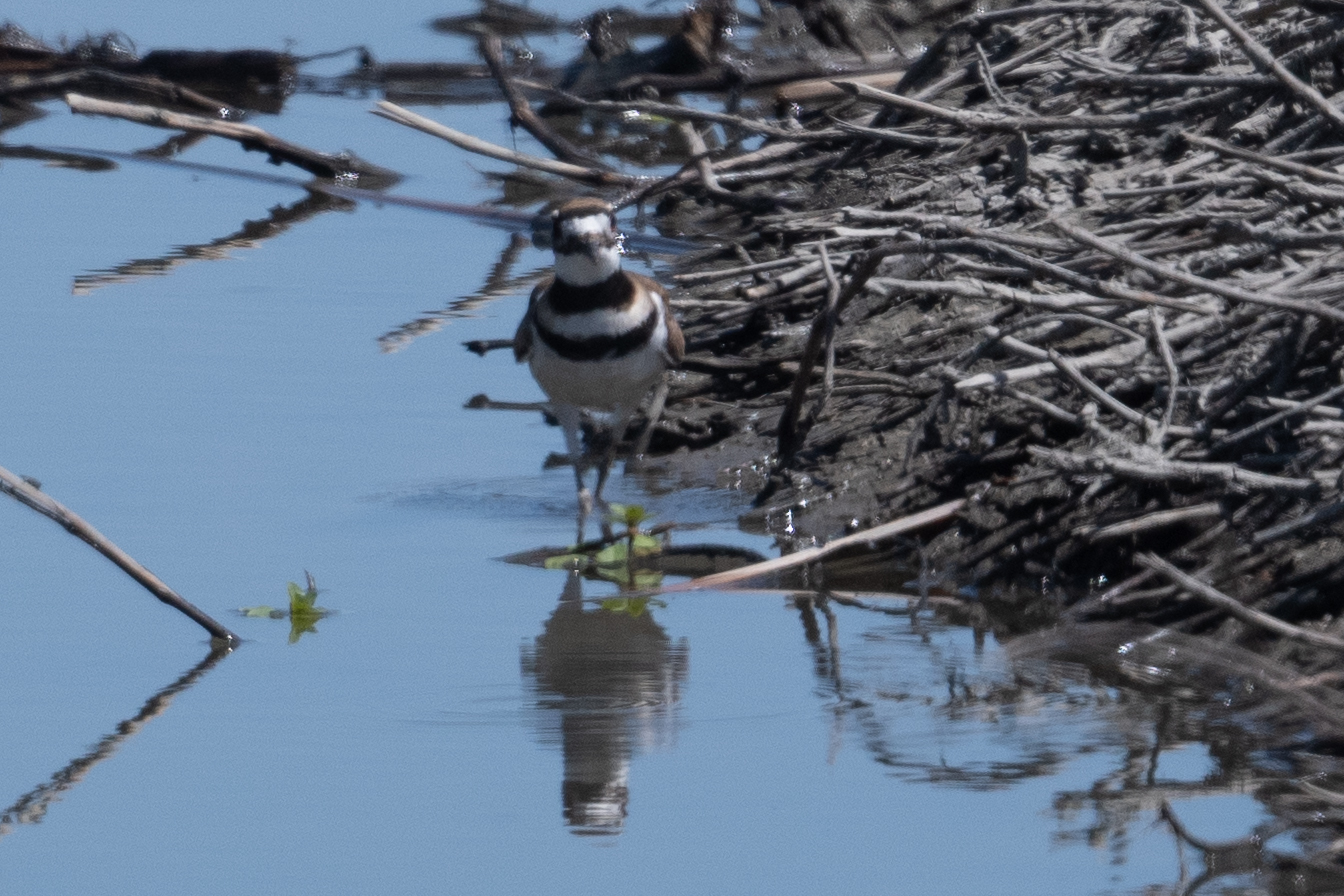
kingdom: Animalia
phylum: Chordata
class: Aves
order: Charadriiformes
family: Charadriidae
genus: Charadrius
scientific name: Charadrius vociferus
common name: Killdeer
